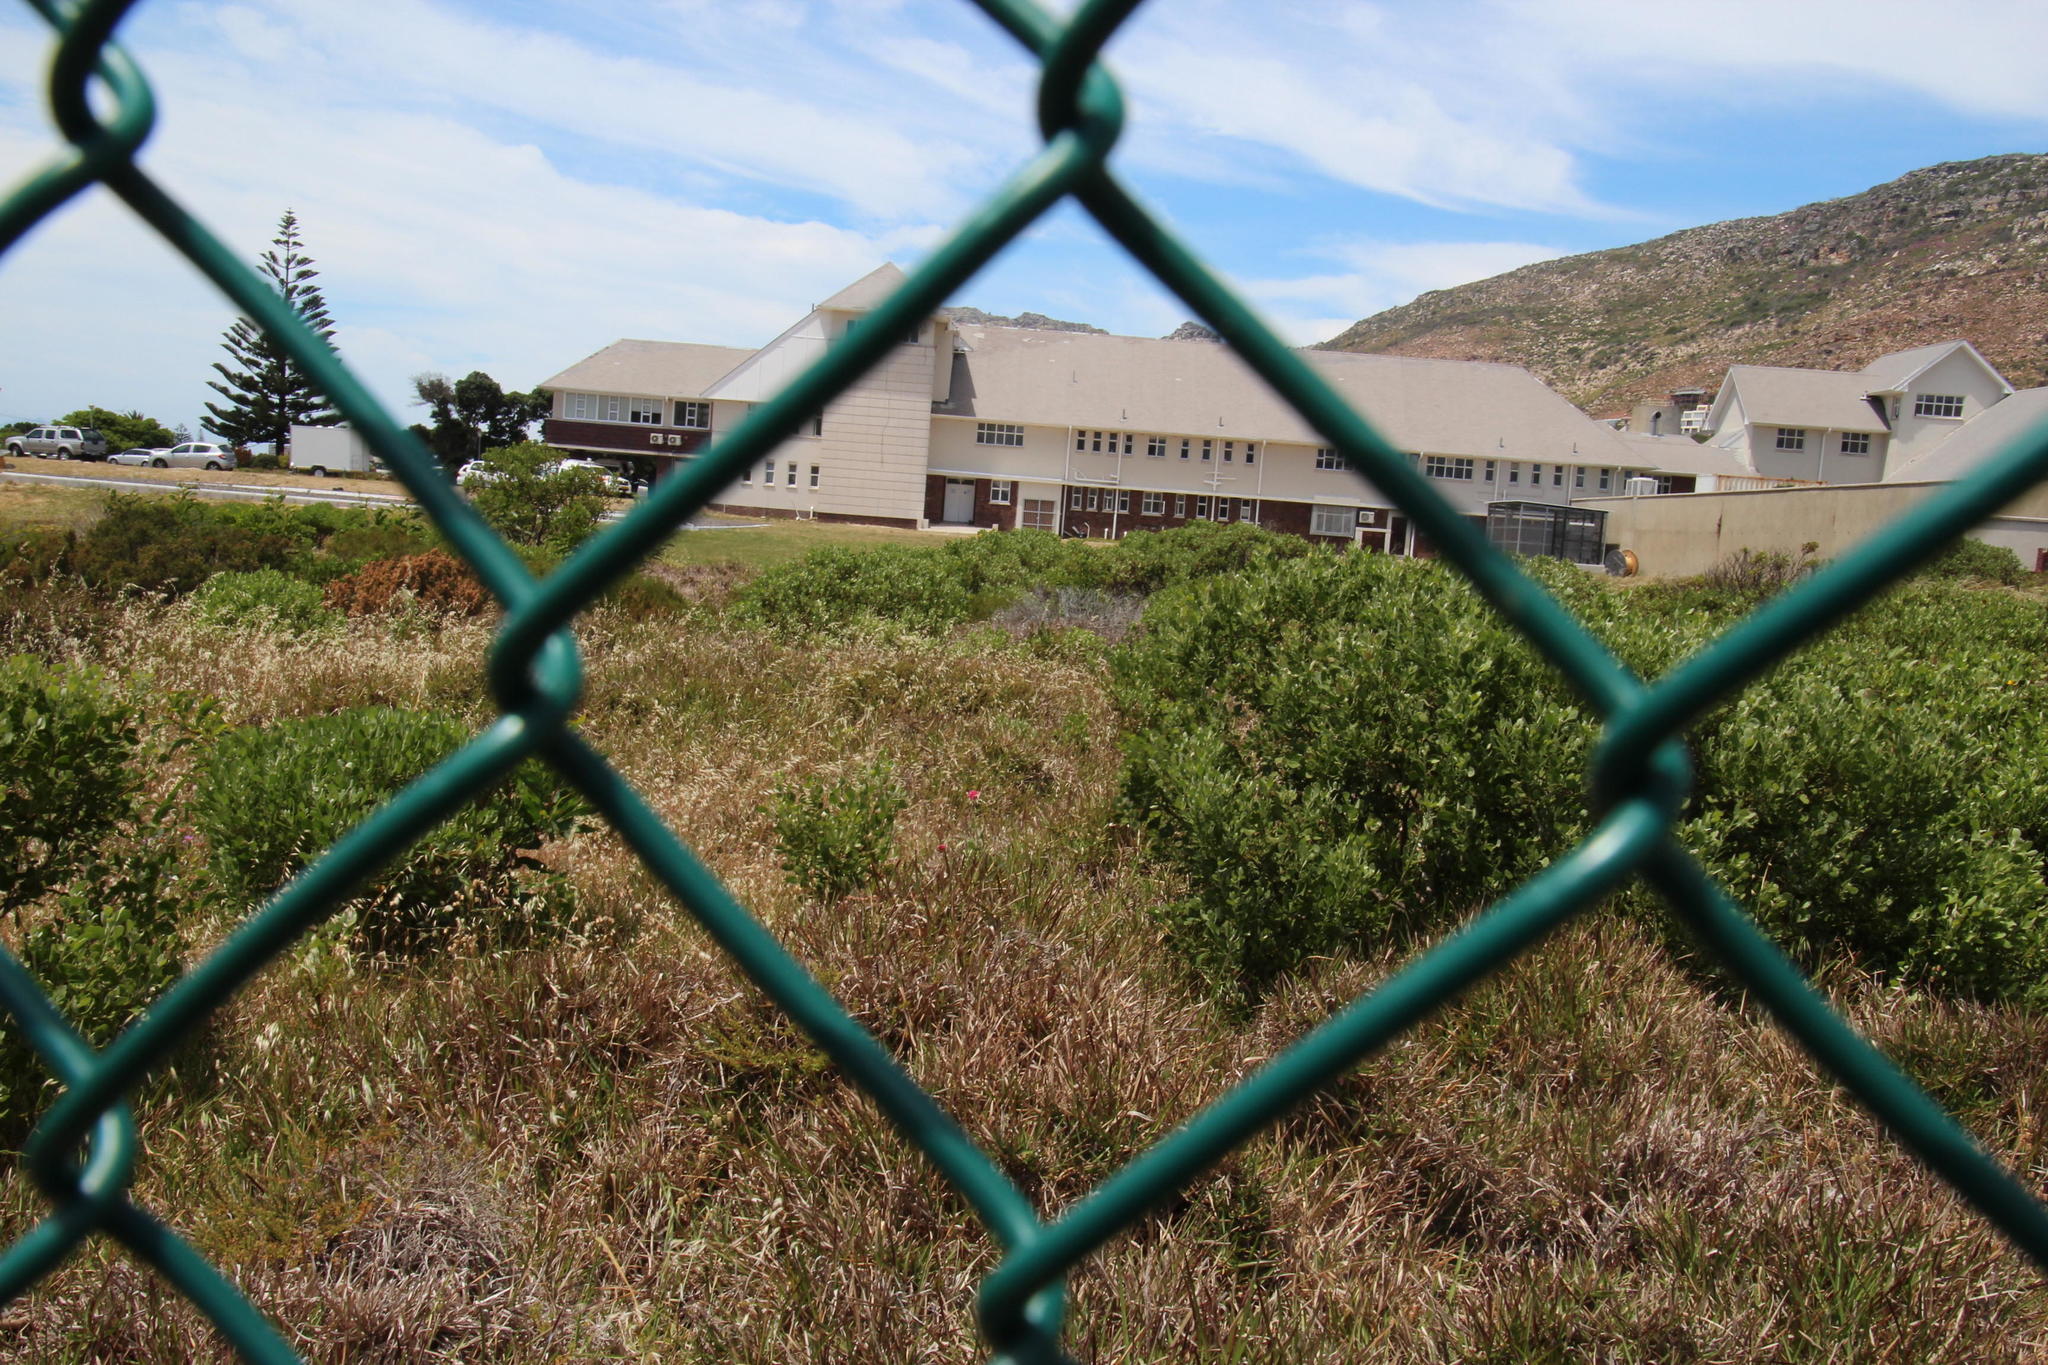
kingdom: Plantae
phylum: Tracheophyta
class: Magnoliopsida
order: Dipsacales
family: Caprifoliaceae
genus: Centranthus
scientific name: Centranthus ruber
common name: Red valerian
